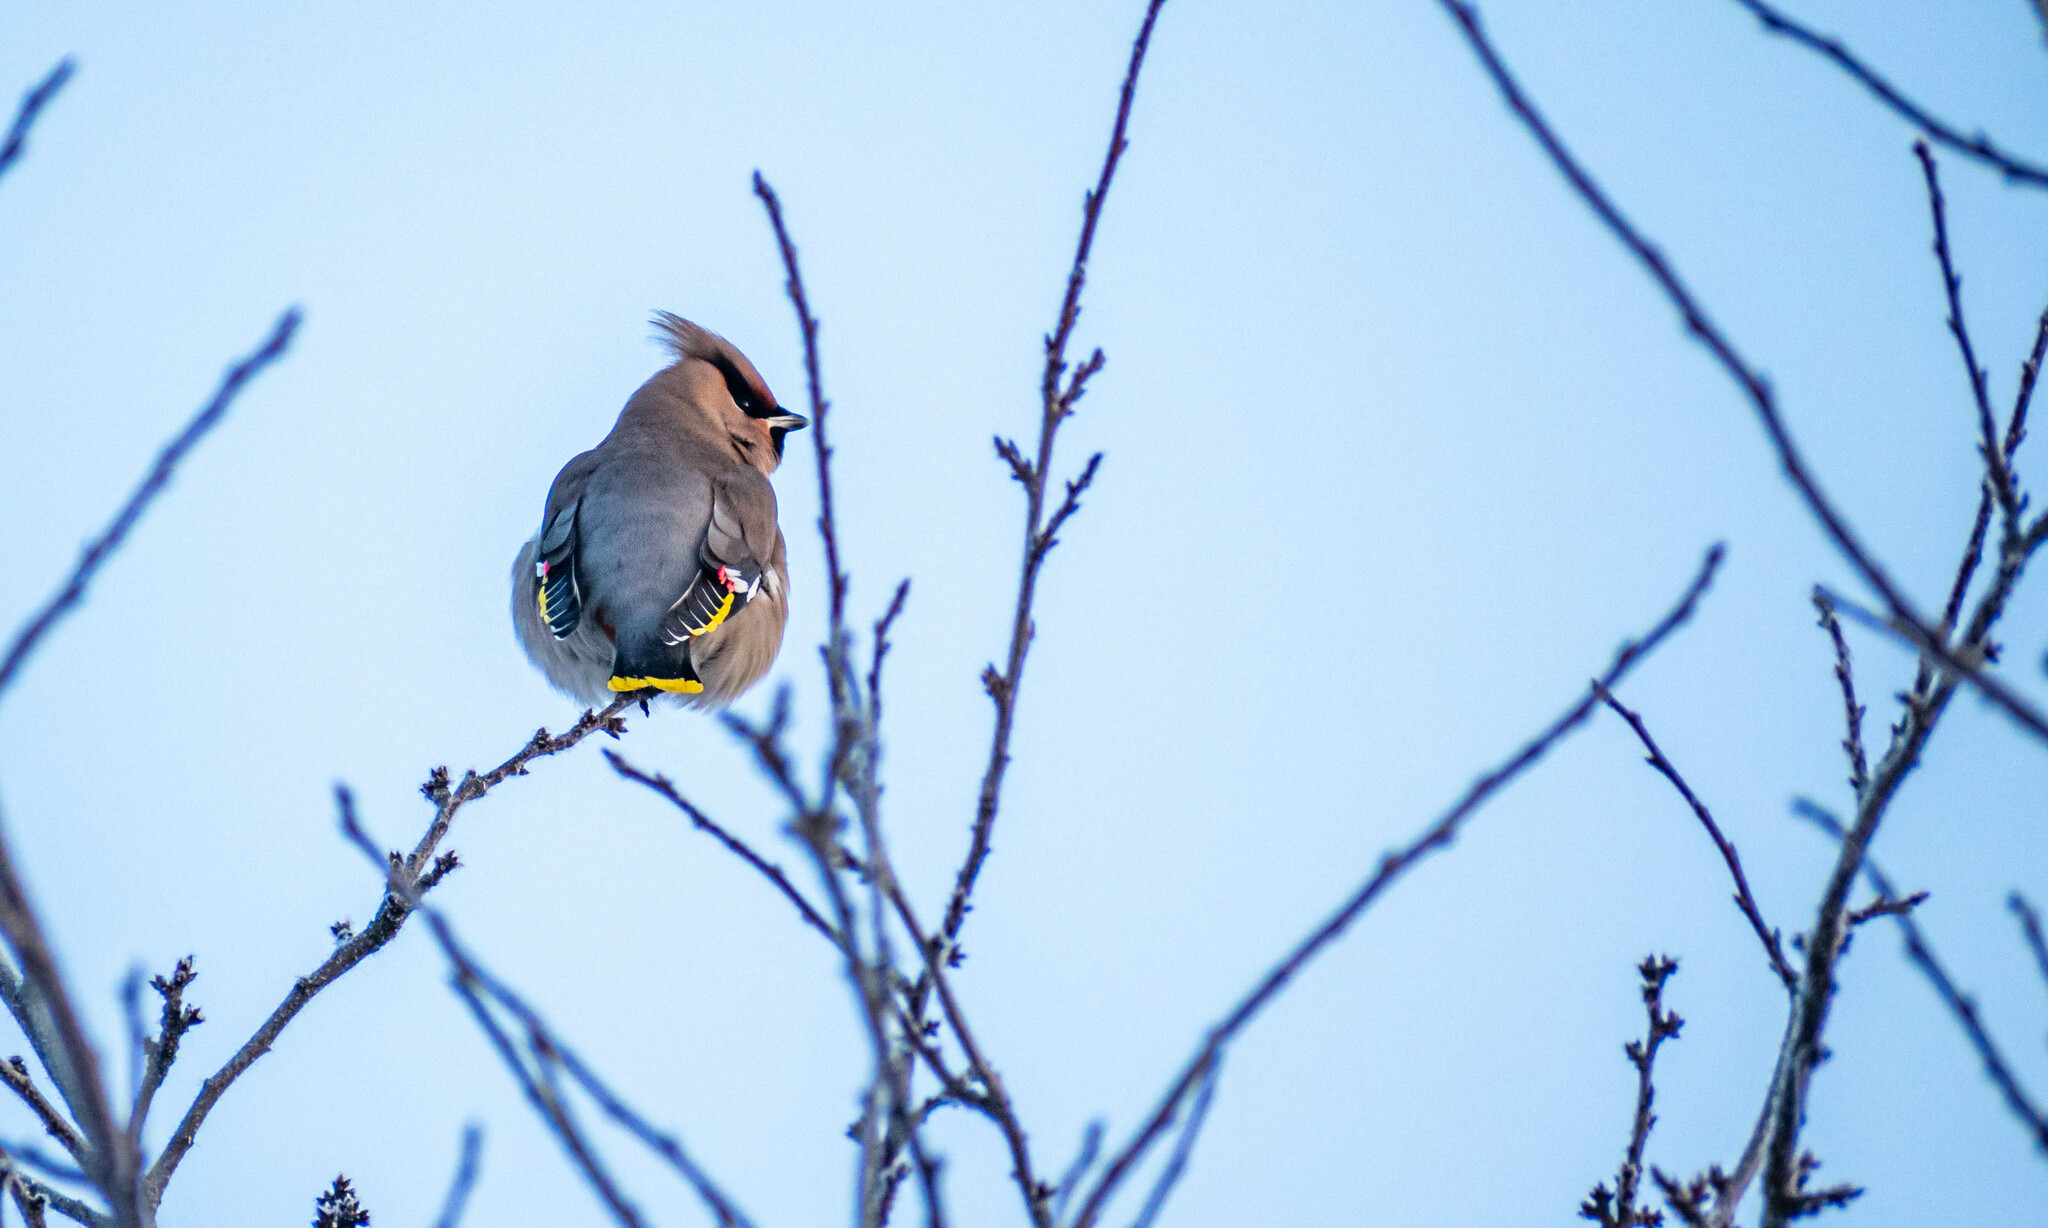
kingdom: Animalia
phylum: Chordata
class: Aves
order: Passeriformes
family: Bombycillidae
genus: Bombycilla
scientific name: Bombycilla garrulus
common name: Bohemian waxwing
